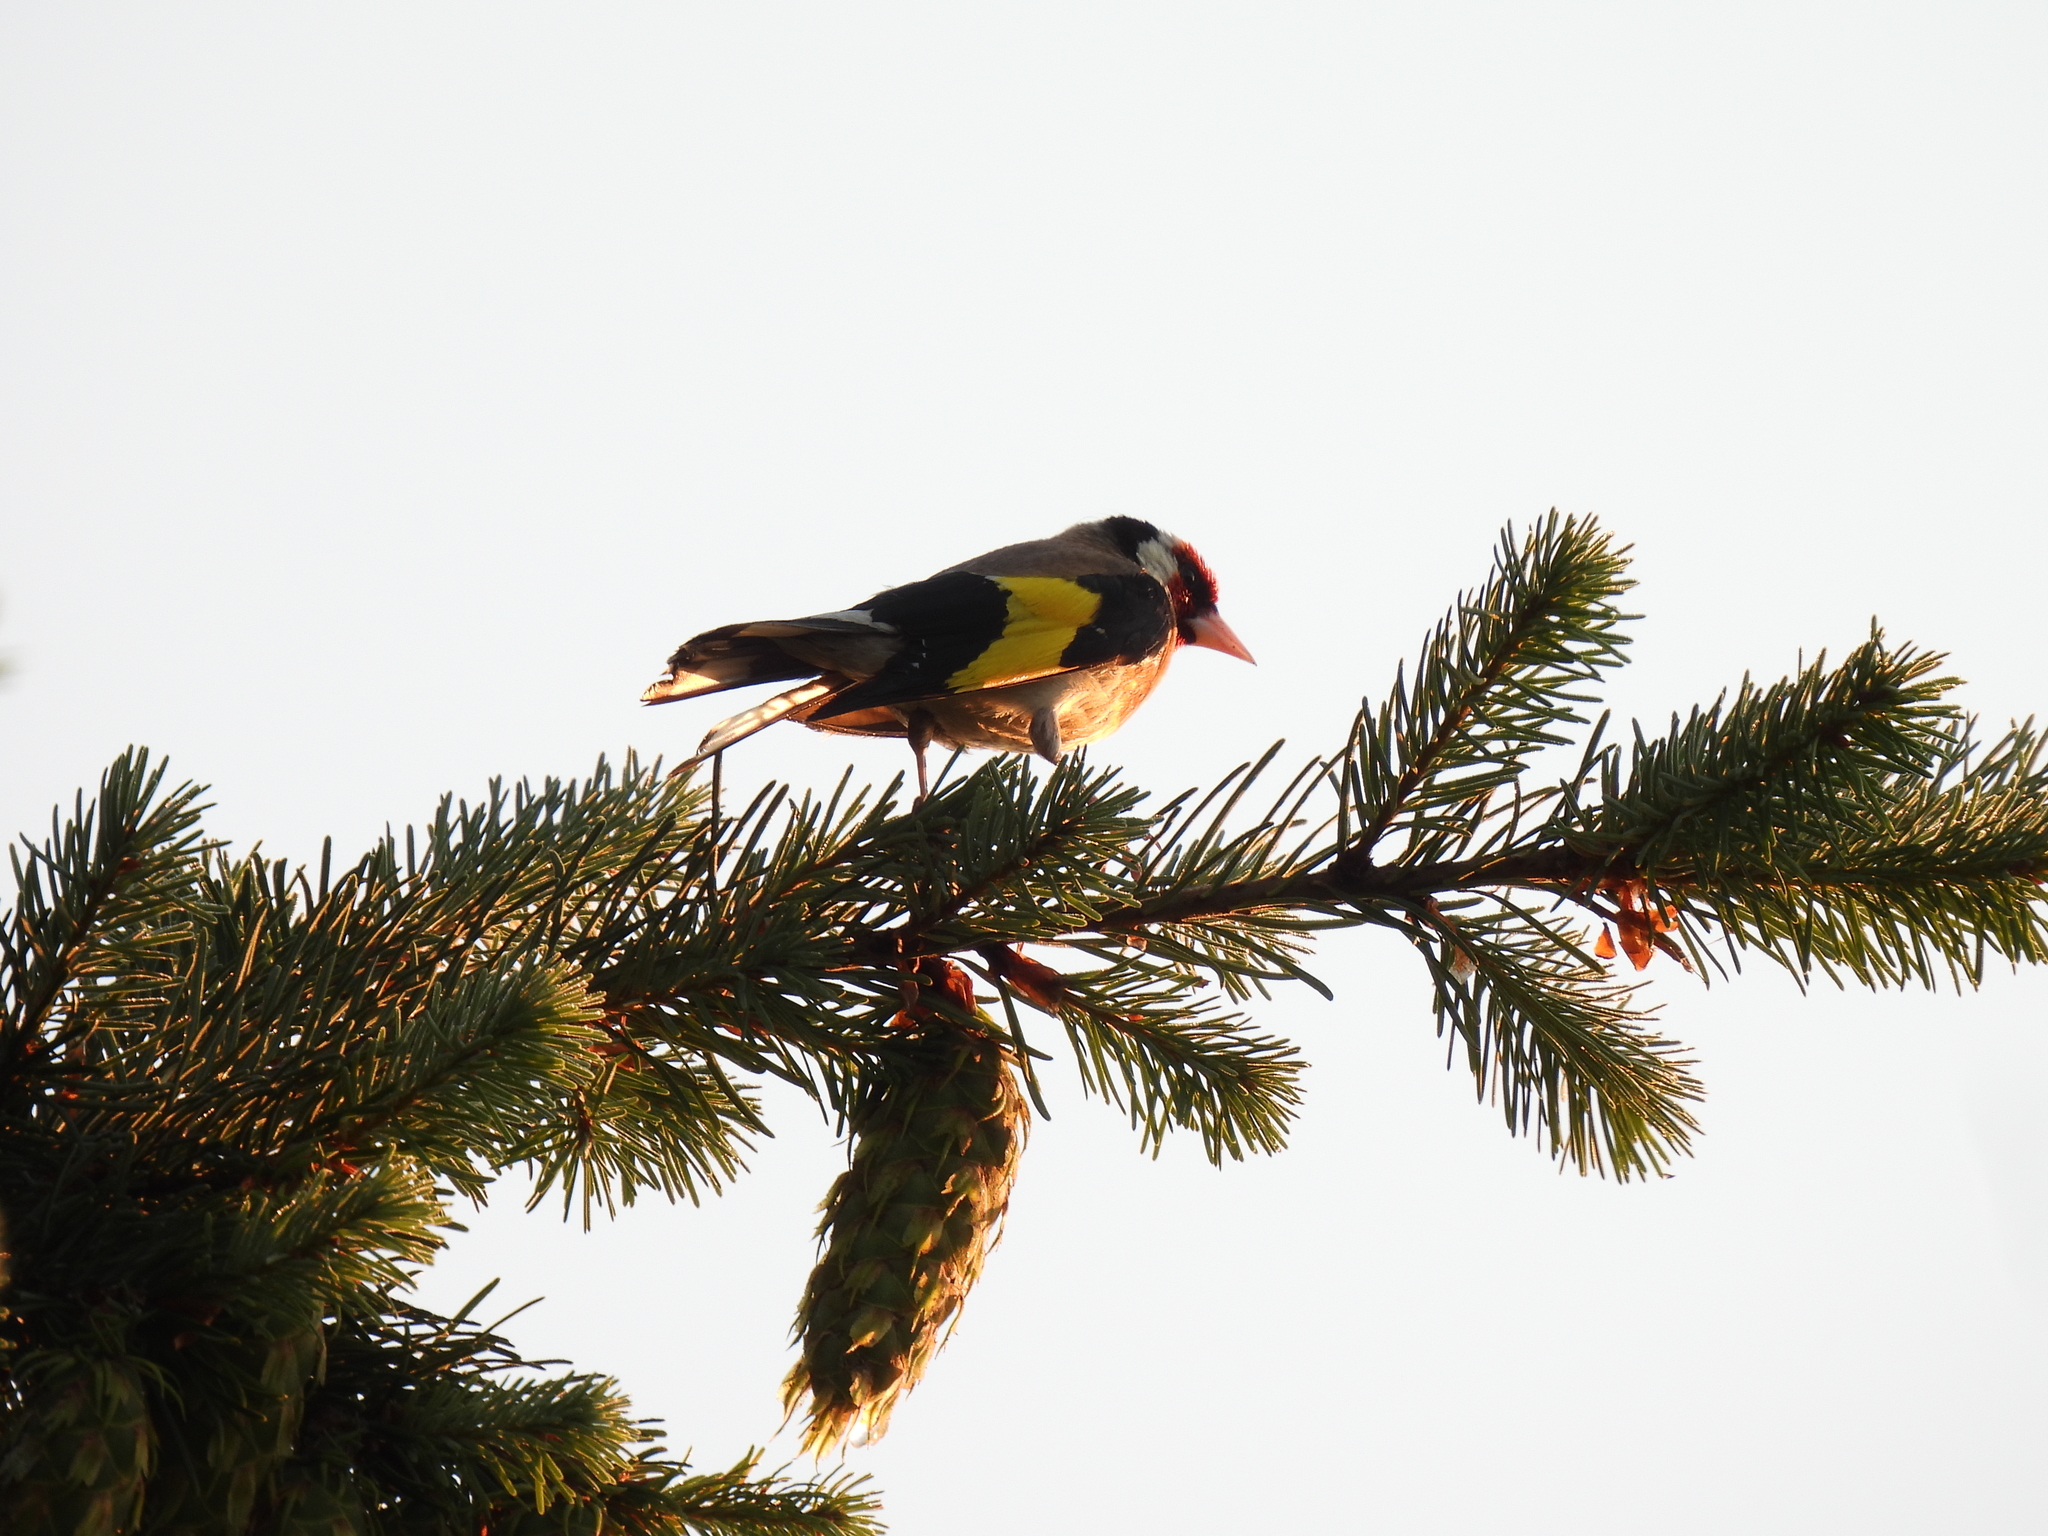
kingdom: Animalia
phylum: Chordata
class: Aves
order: Passeriformes
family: Fringillidae
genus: Carduelis
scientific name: Carduelis carduelis
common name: European goldfinch
